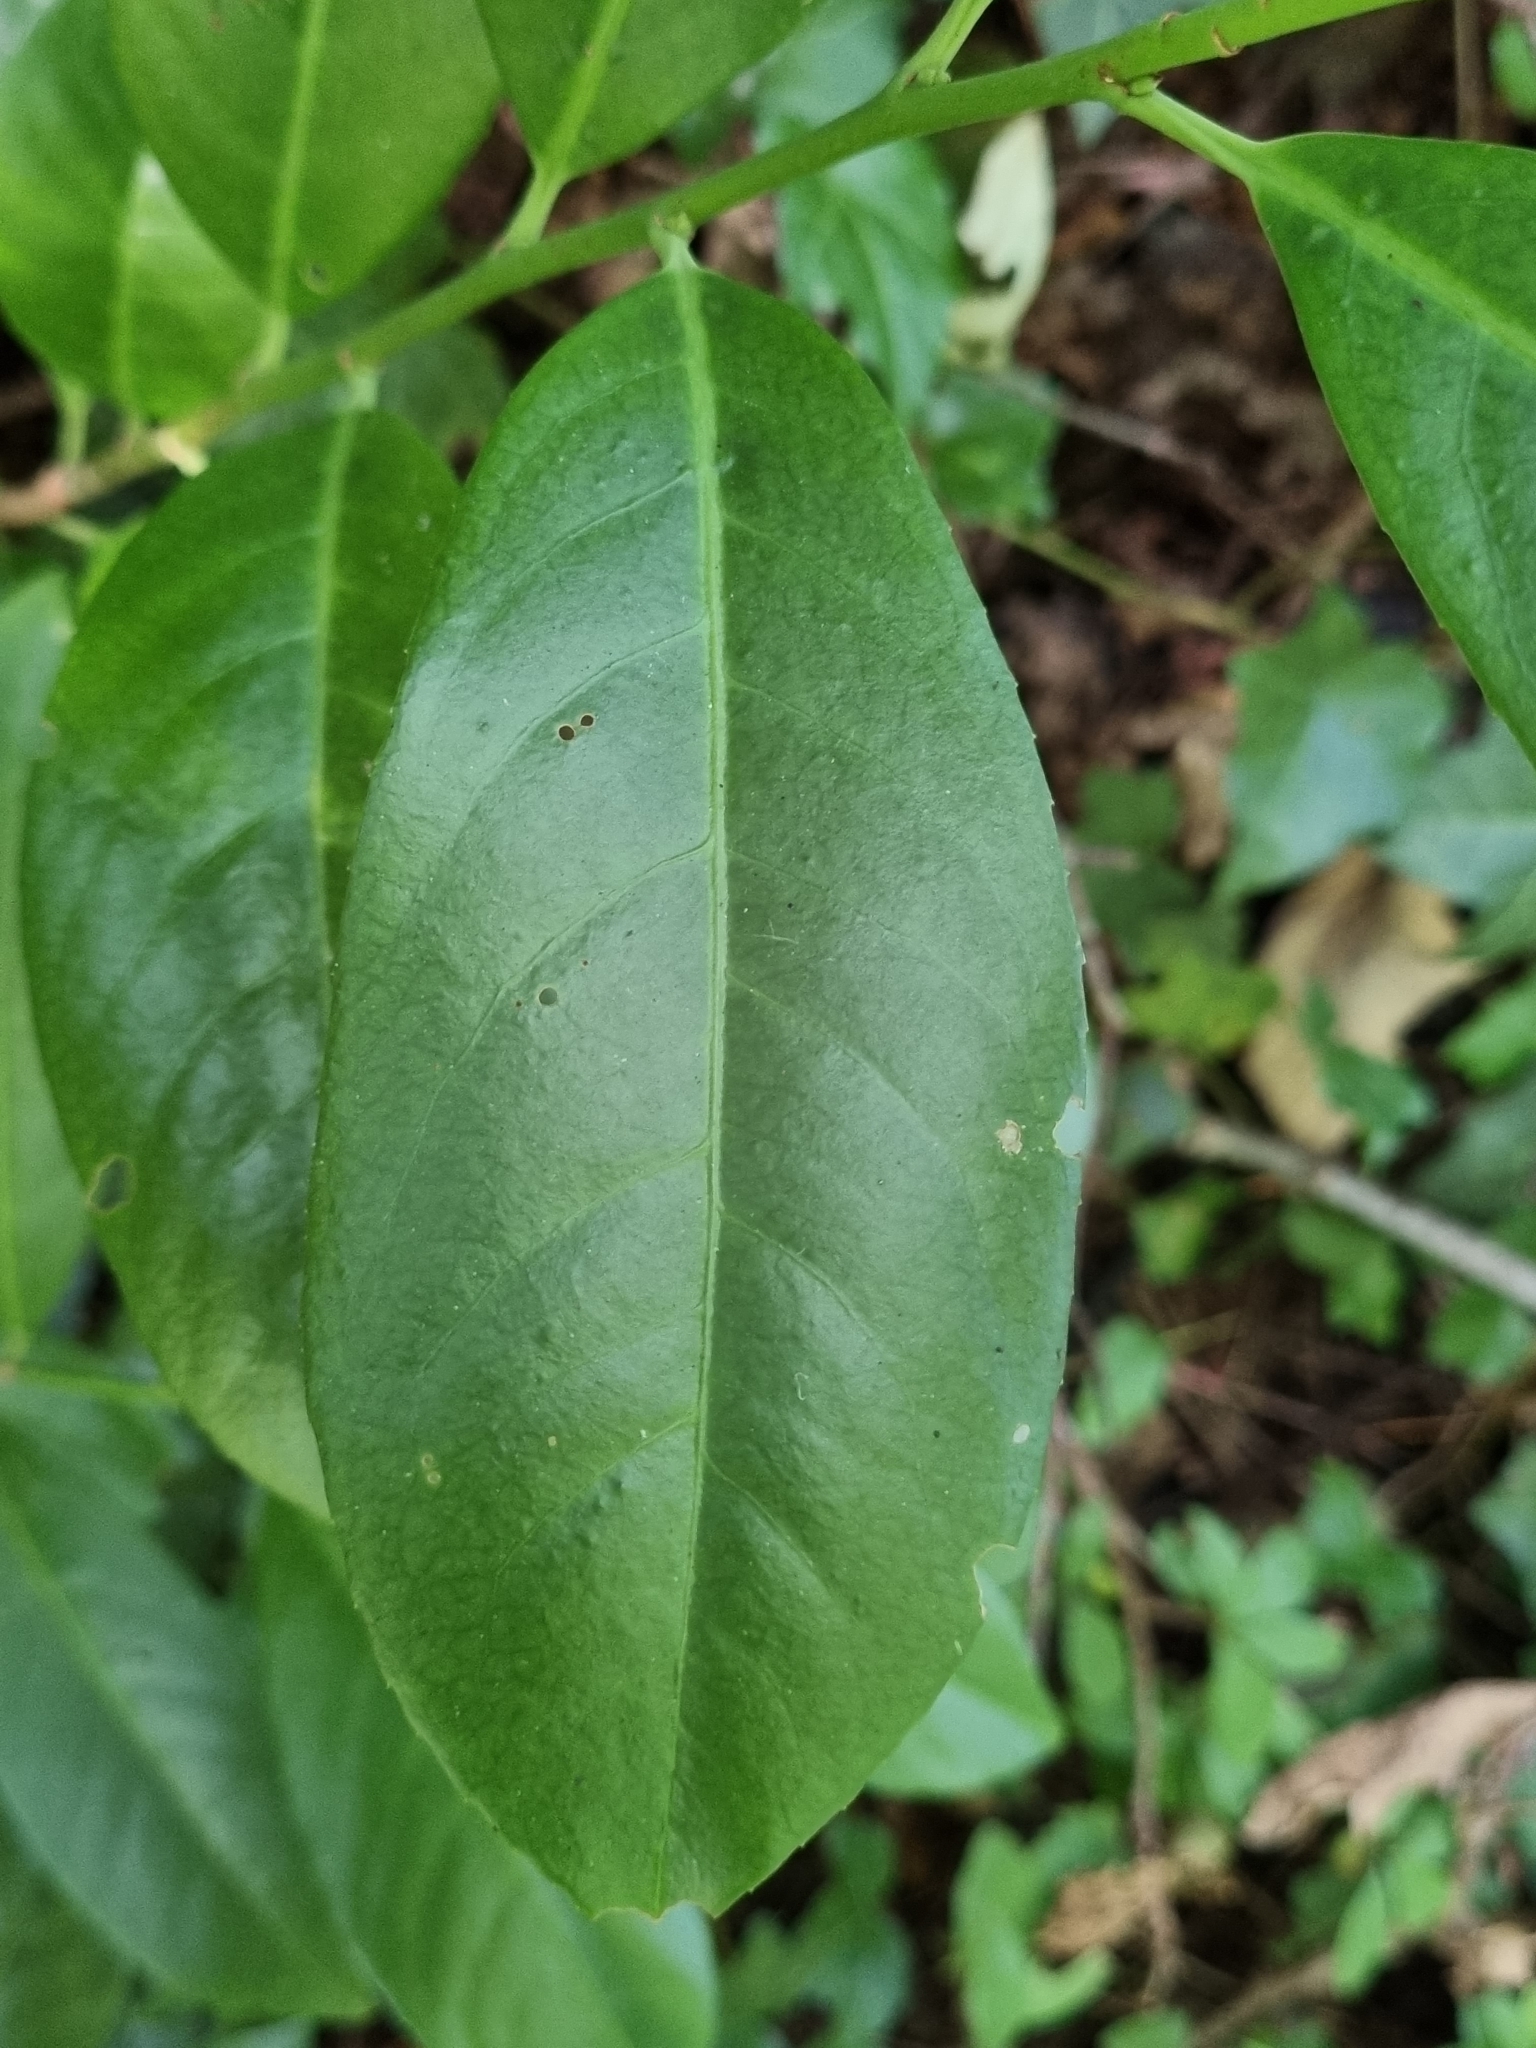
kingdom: Plantae
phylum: Tracheophyta
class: Magnoliopsida
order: Rosales
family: Rosaceae
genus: Prunus
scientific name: Prunus laurocerasus
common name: Cherry laurel
